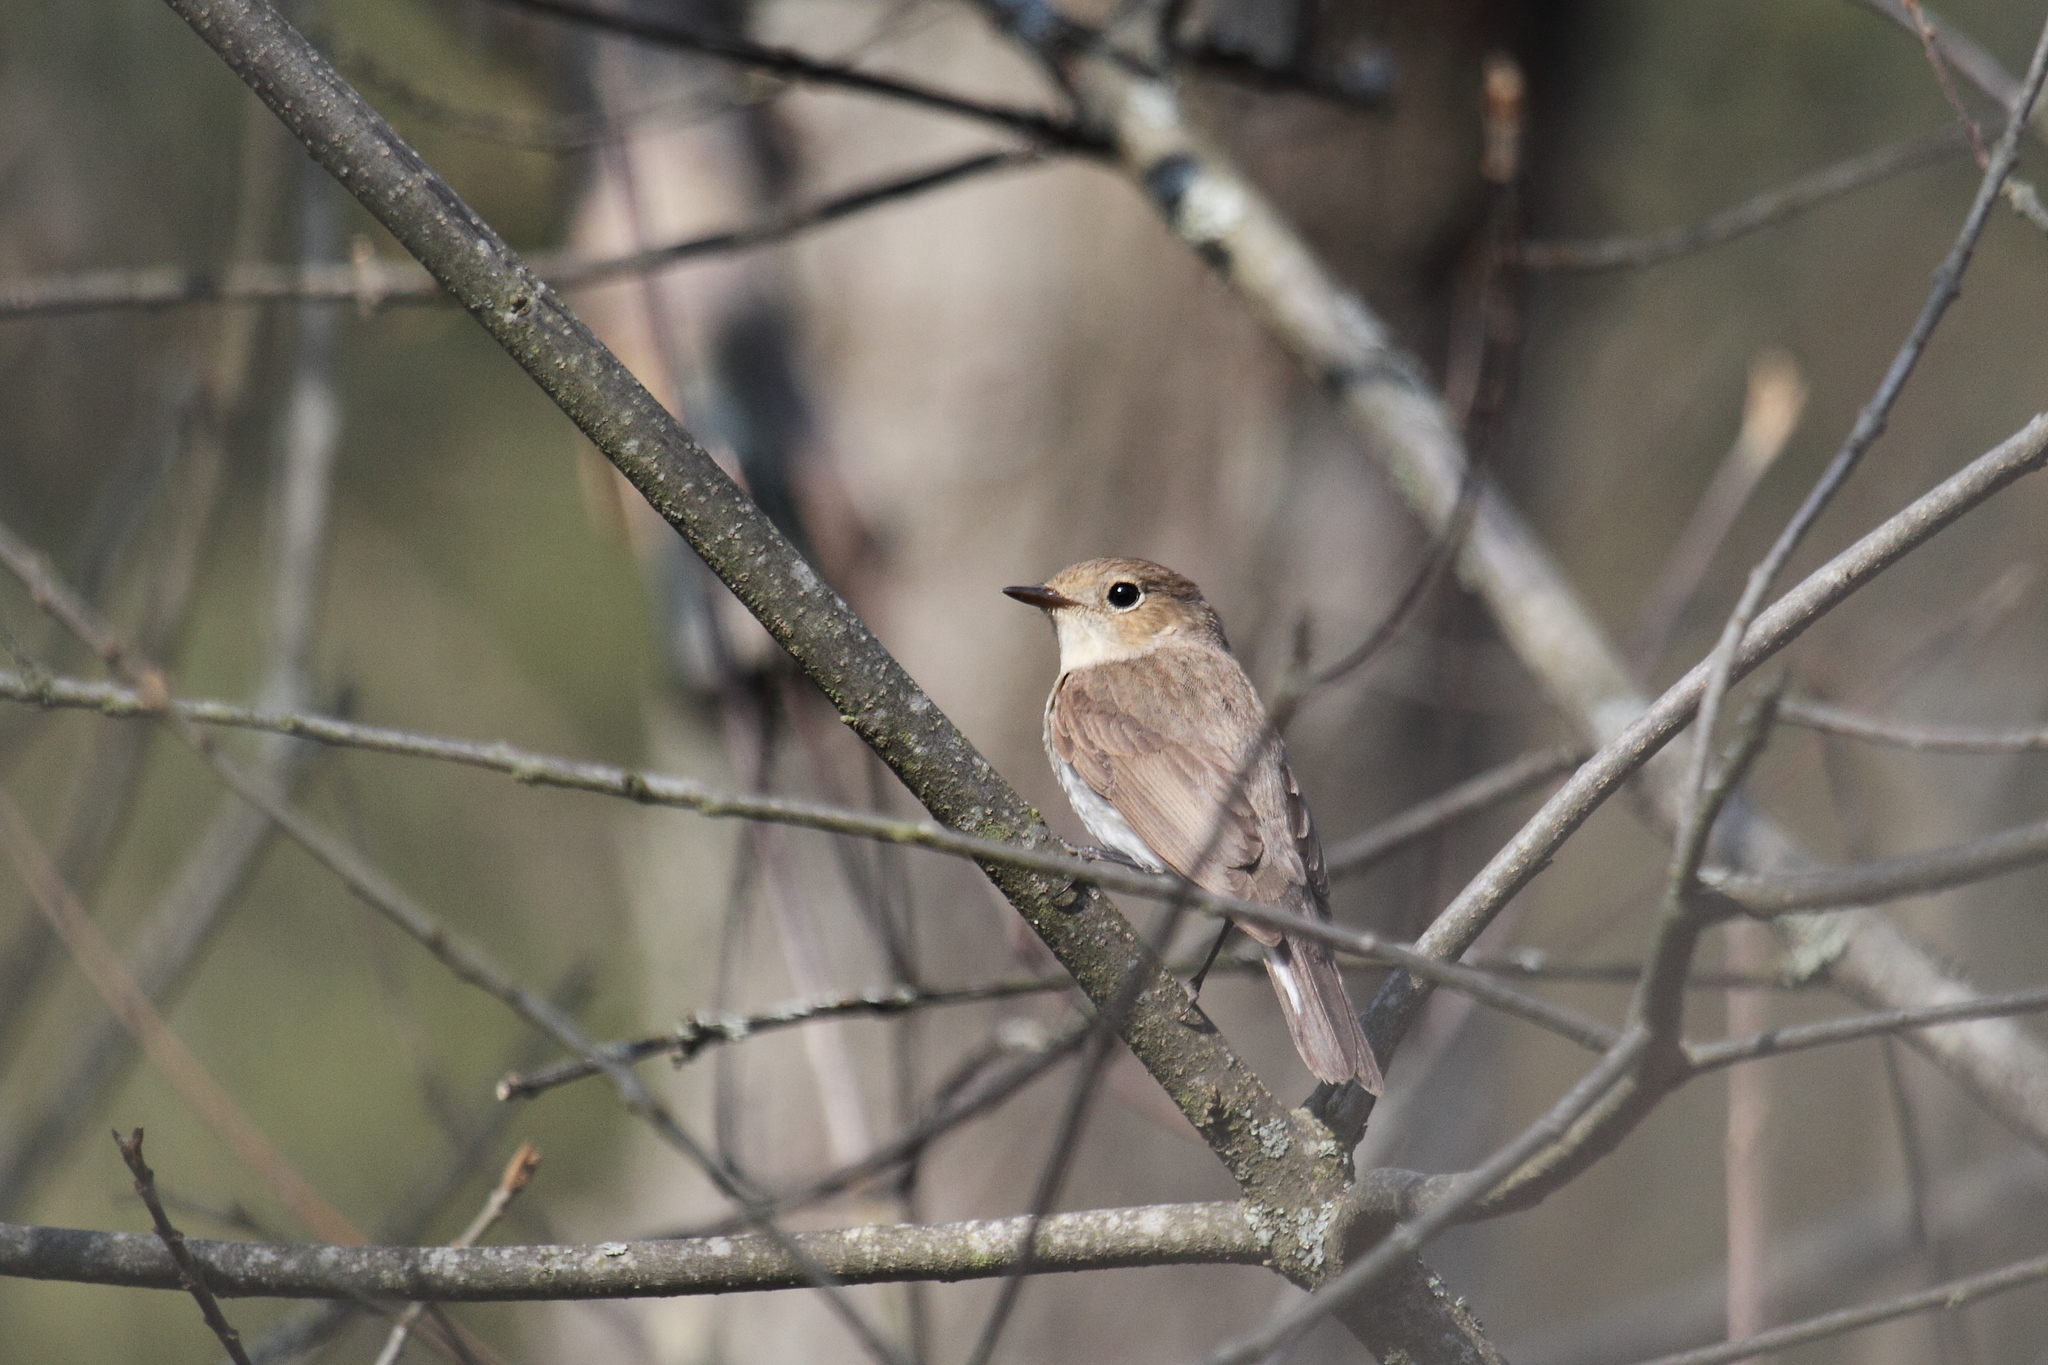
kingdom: Animalia
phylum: Chordata
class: Aves
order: Passeriformes
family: Muscicapidae
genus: Ficedula
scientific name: Ficedula parva
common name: Red-breasted flycatcher
